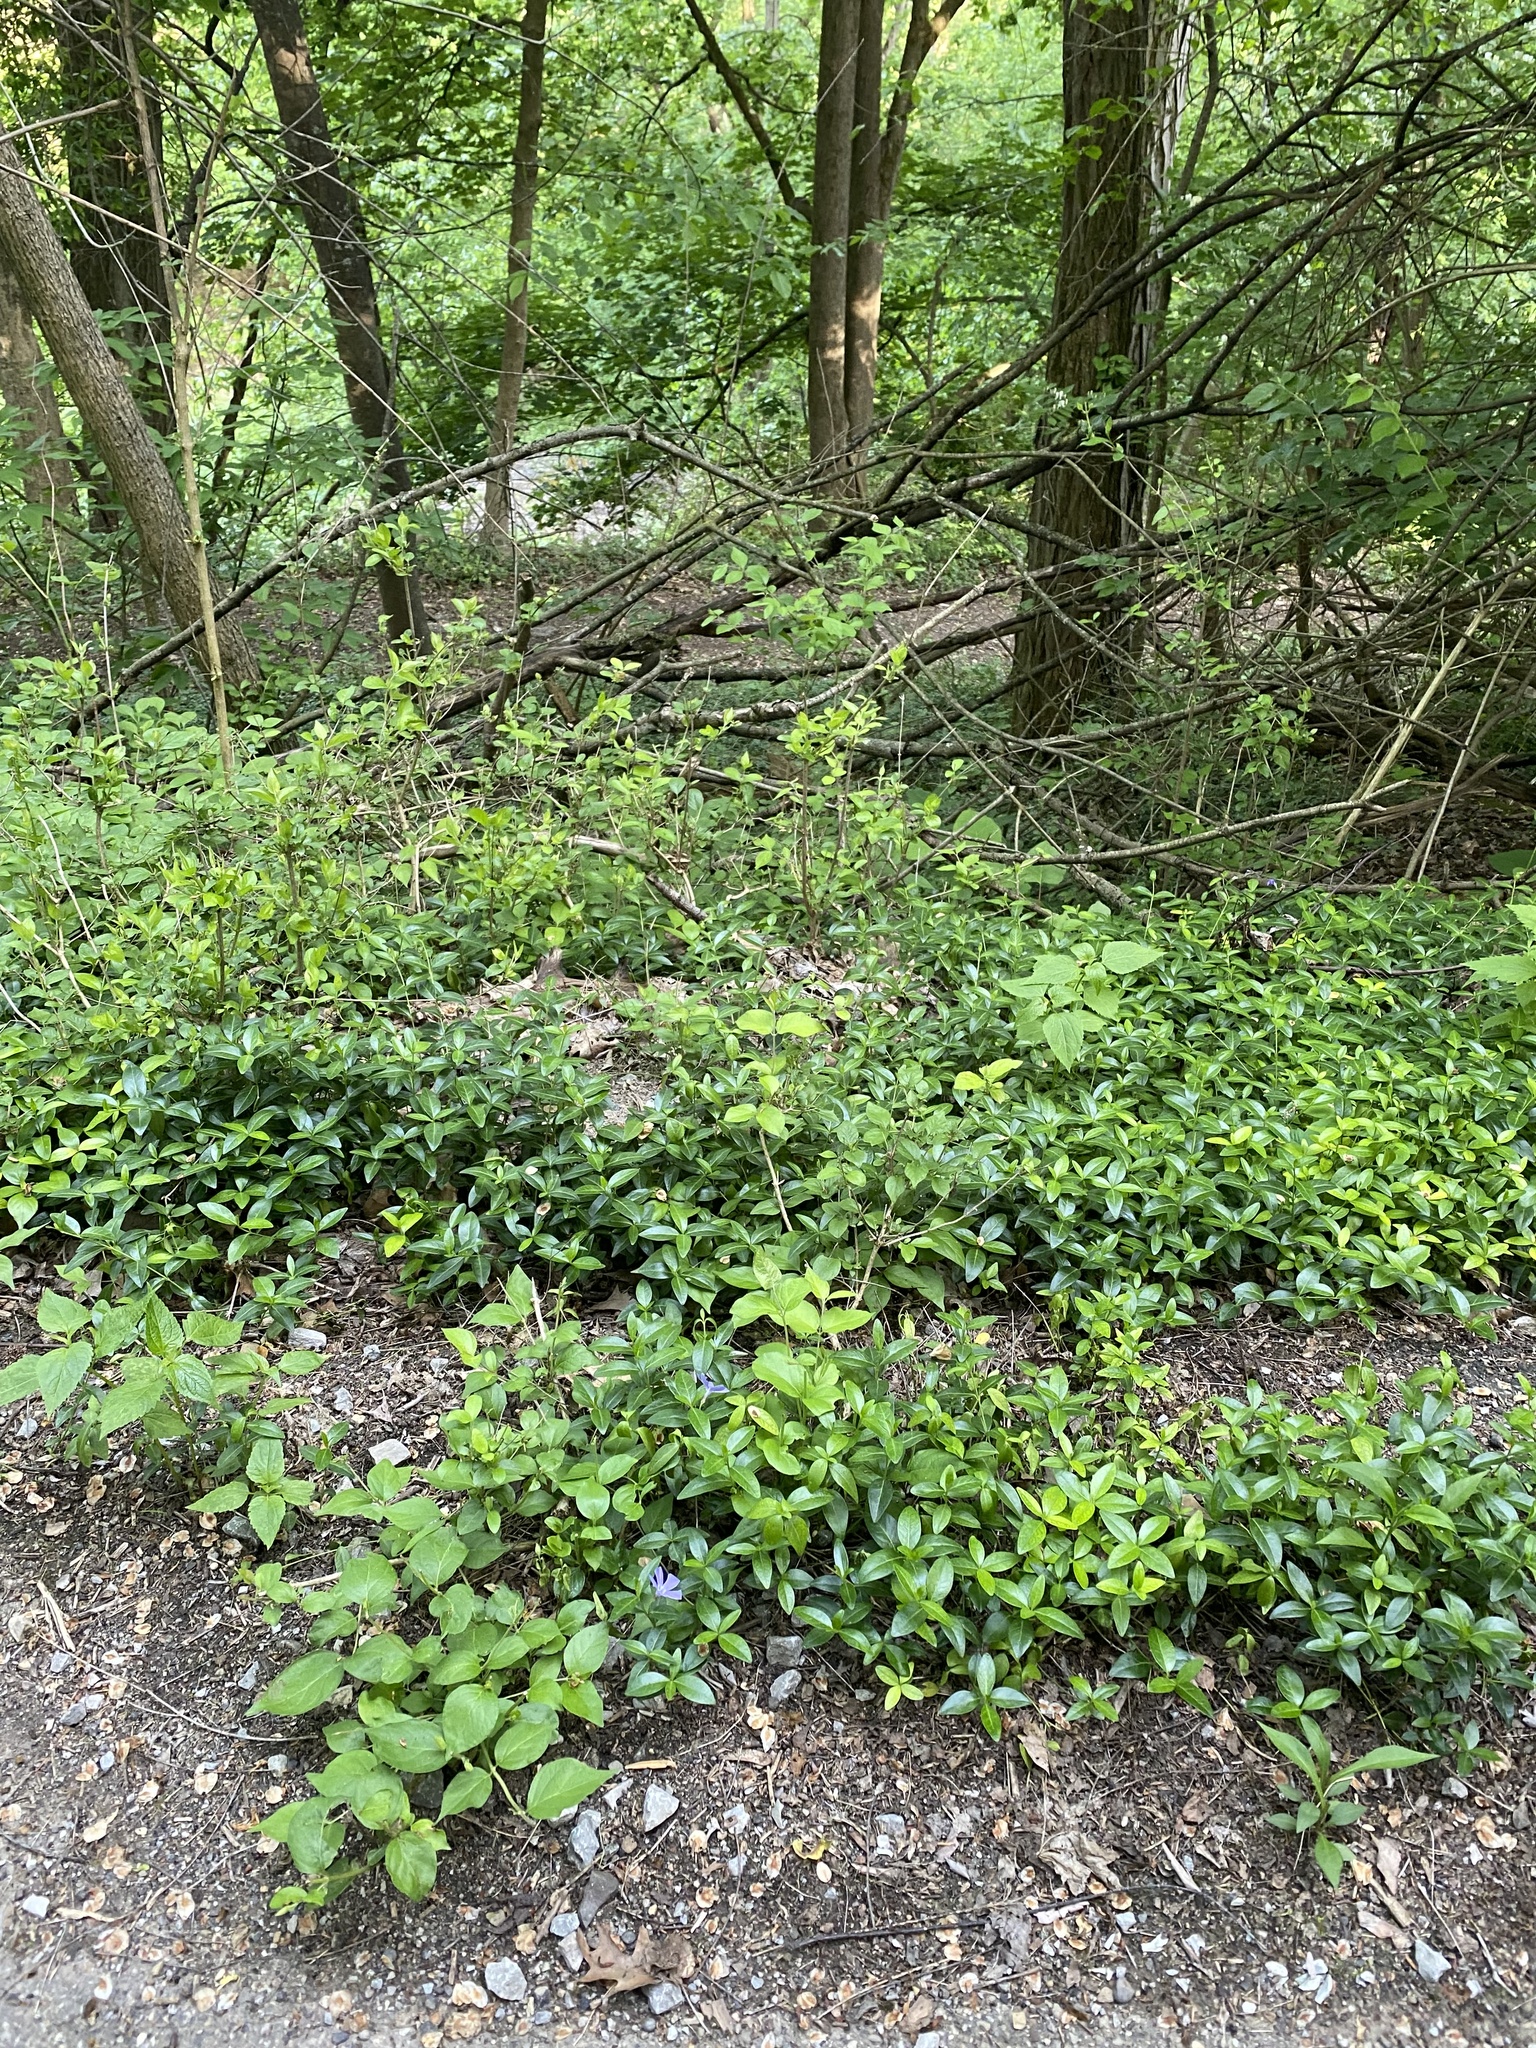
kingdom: Plantae
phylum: Tracheophyta
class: Magnoliopsida
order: Gentianales
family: Apocynaceae
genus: Vinca
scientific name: Vinca minor
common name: Lesser periwinkle
